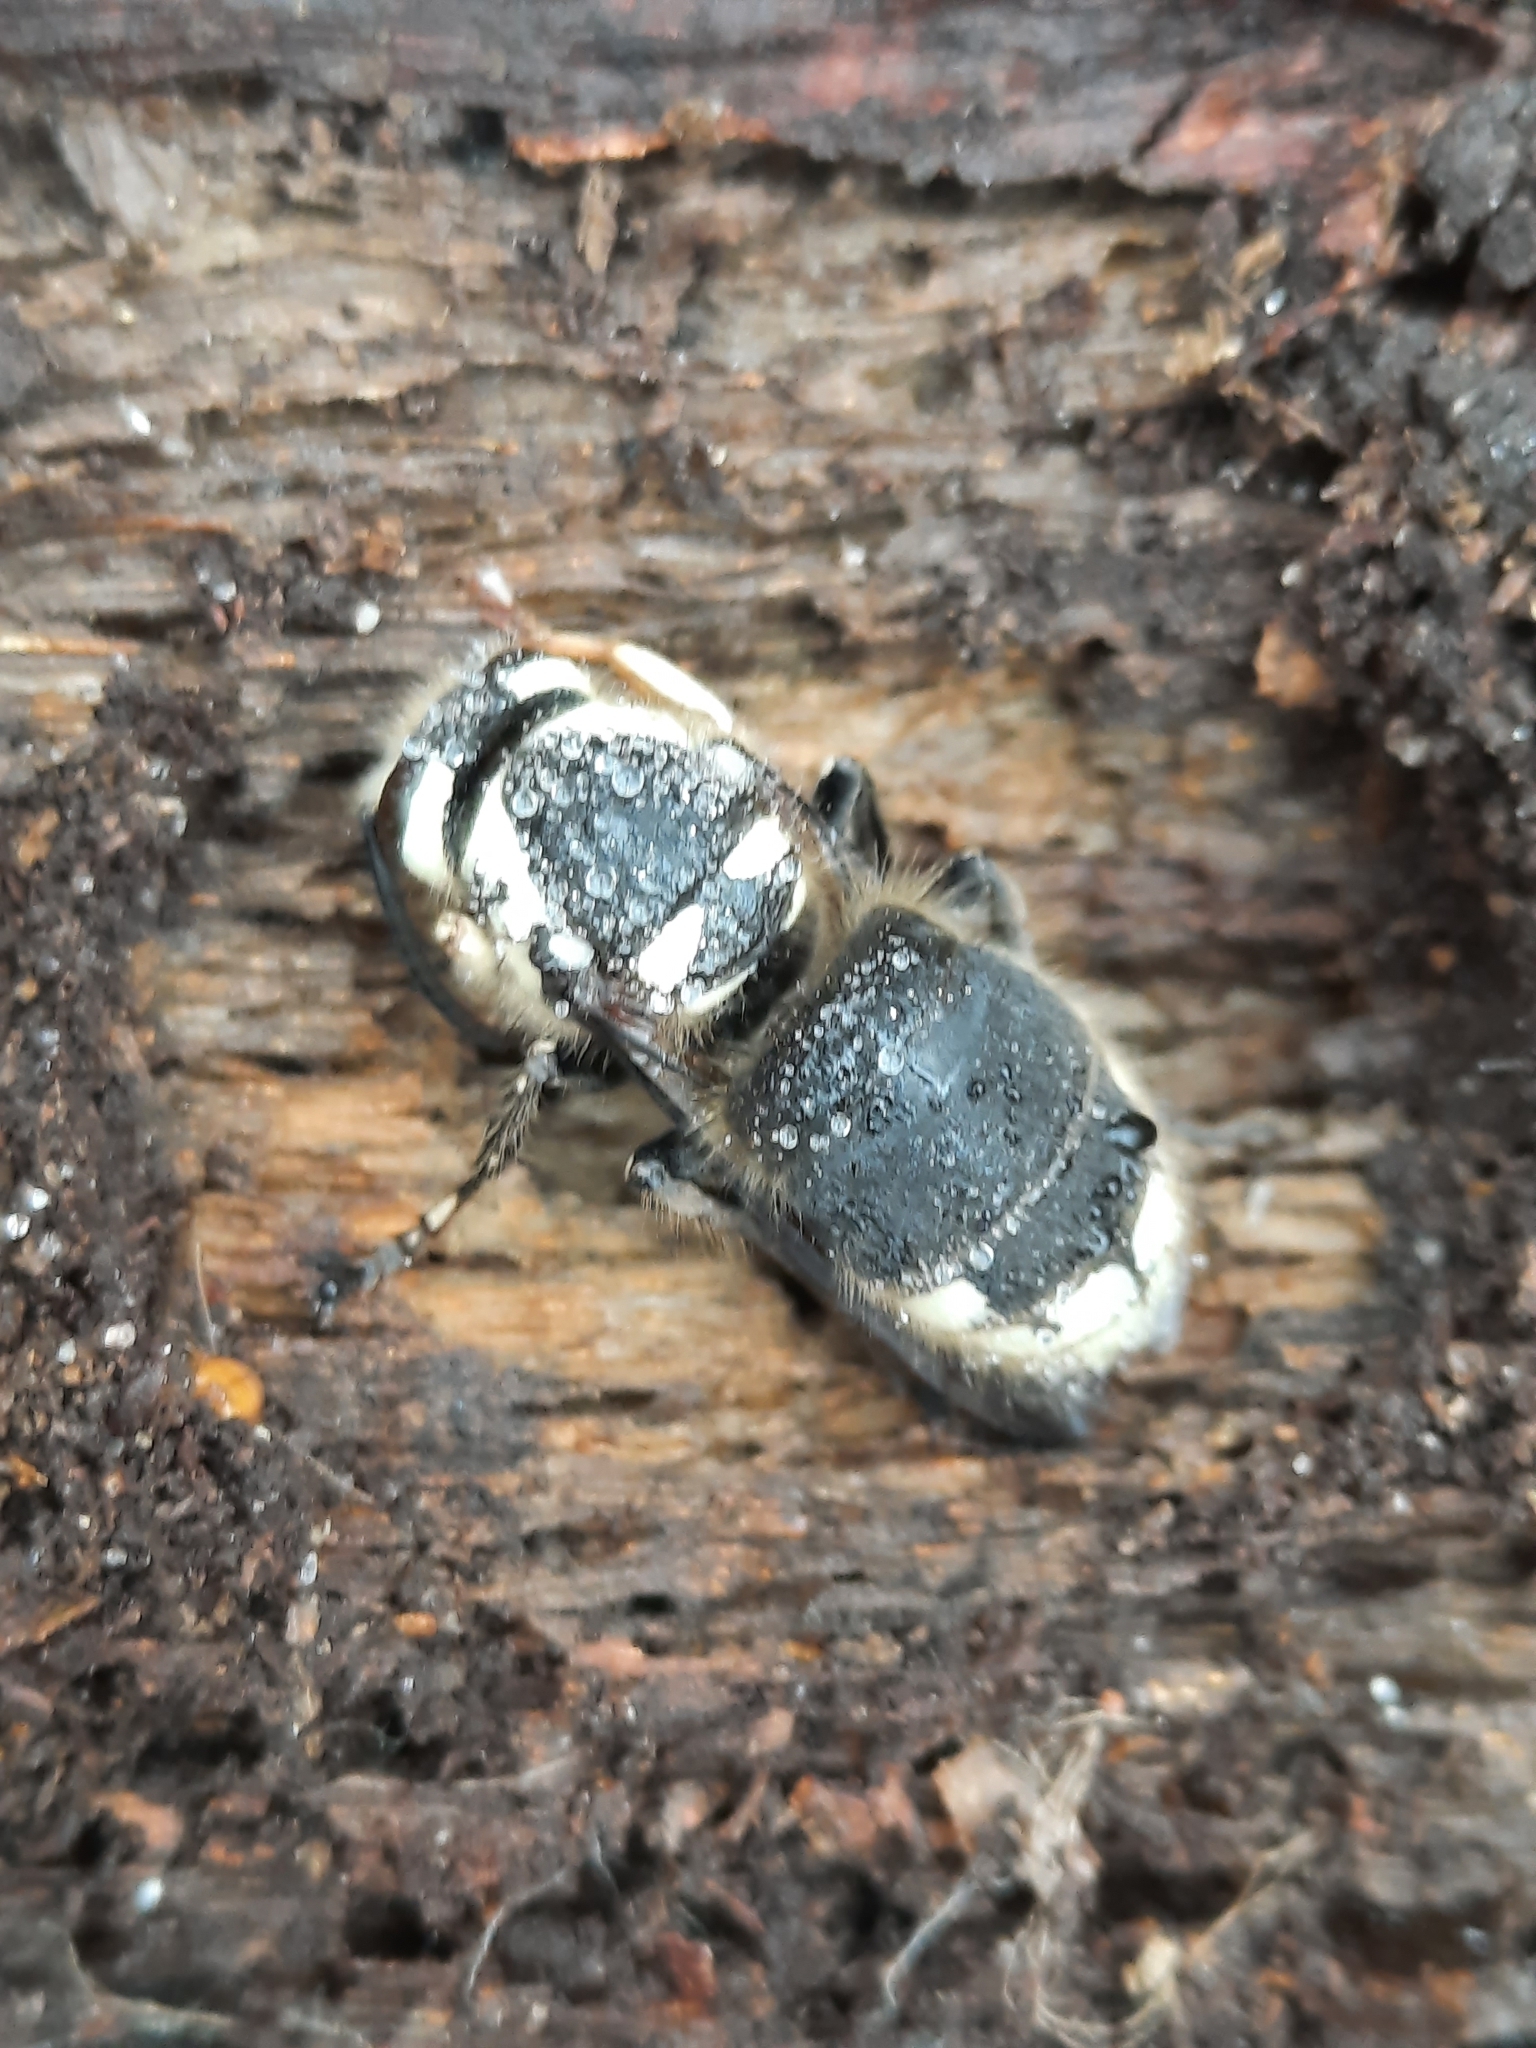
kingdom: Animalia
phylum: Arthropoda
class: Insecta
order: Hymenoptera
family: Vespidae
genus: Dolichovespula
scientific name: Dolichovespula maculata
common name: Bald-faced hornet
